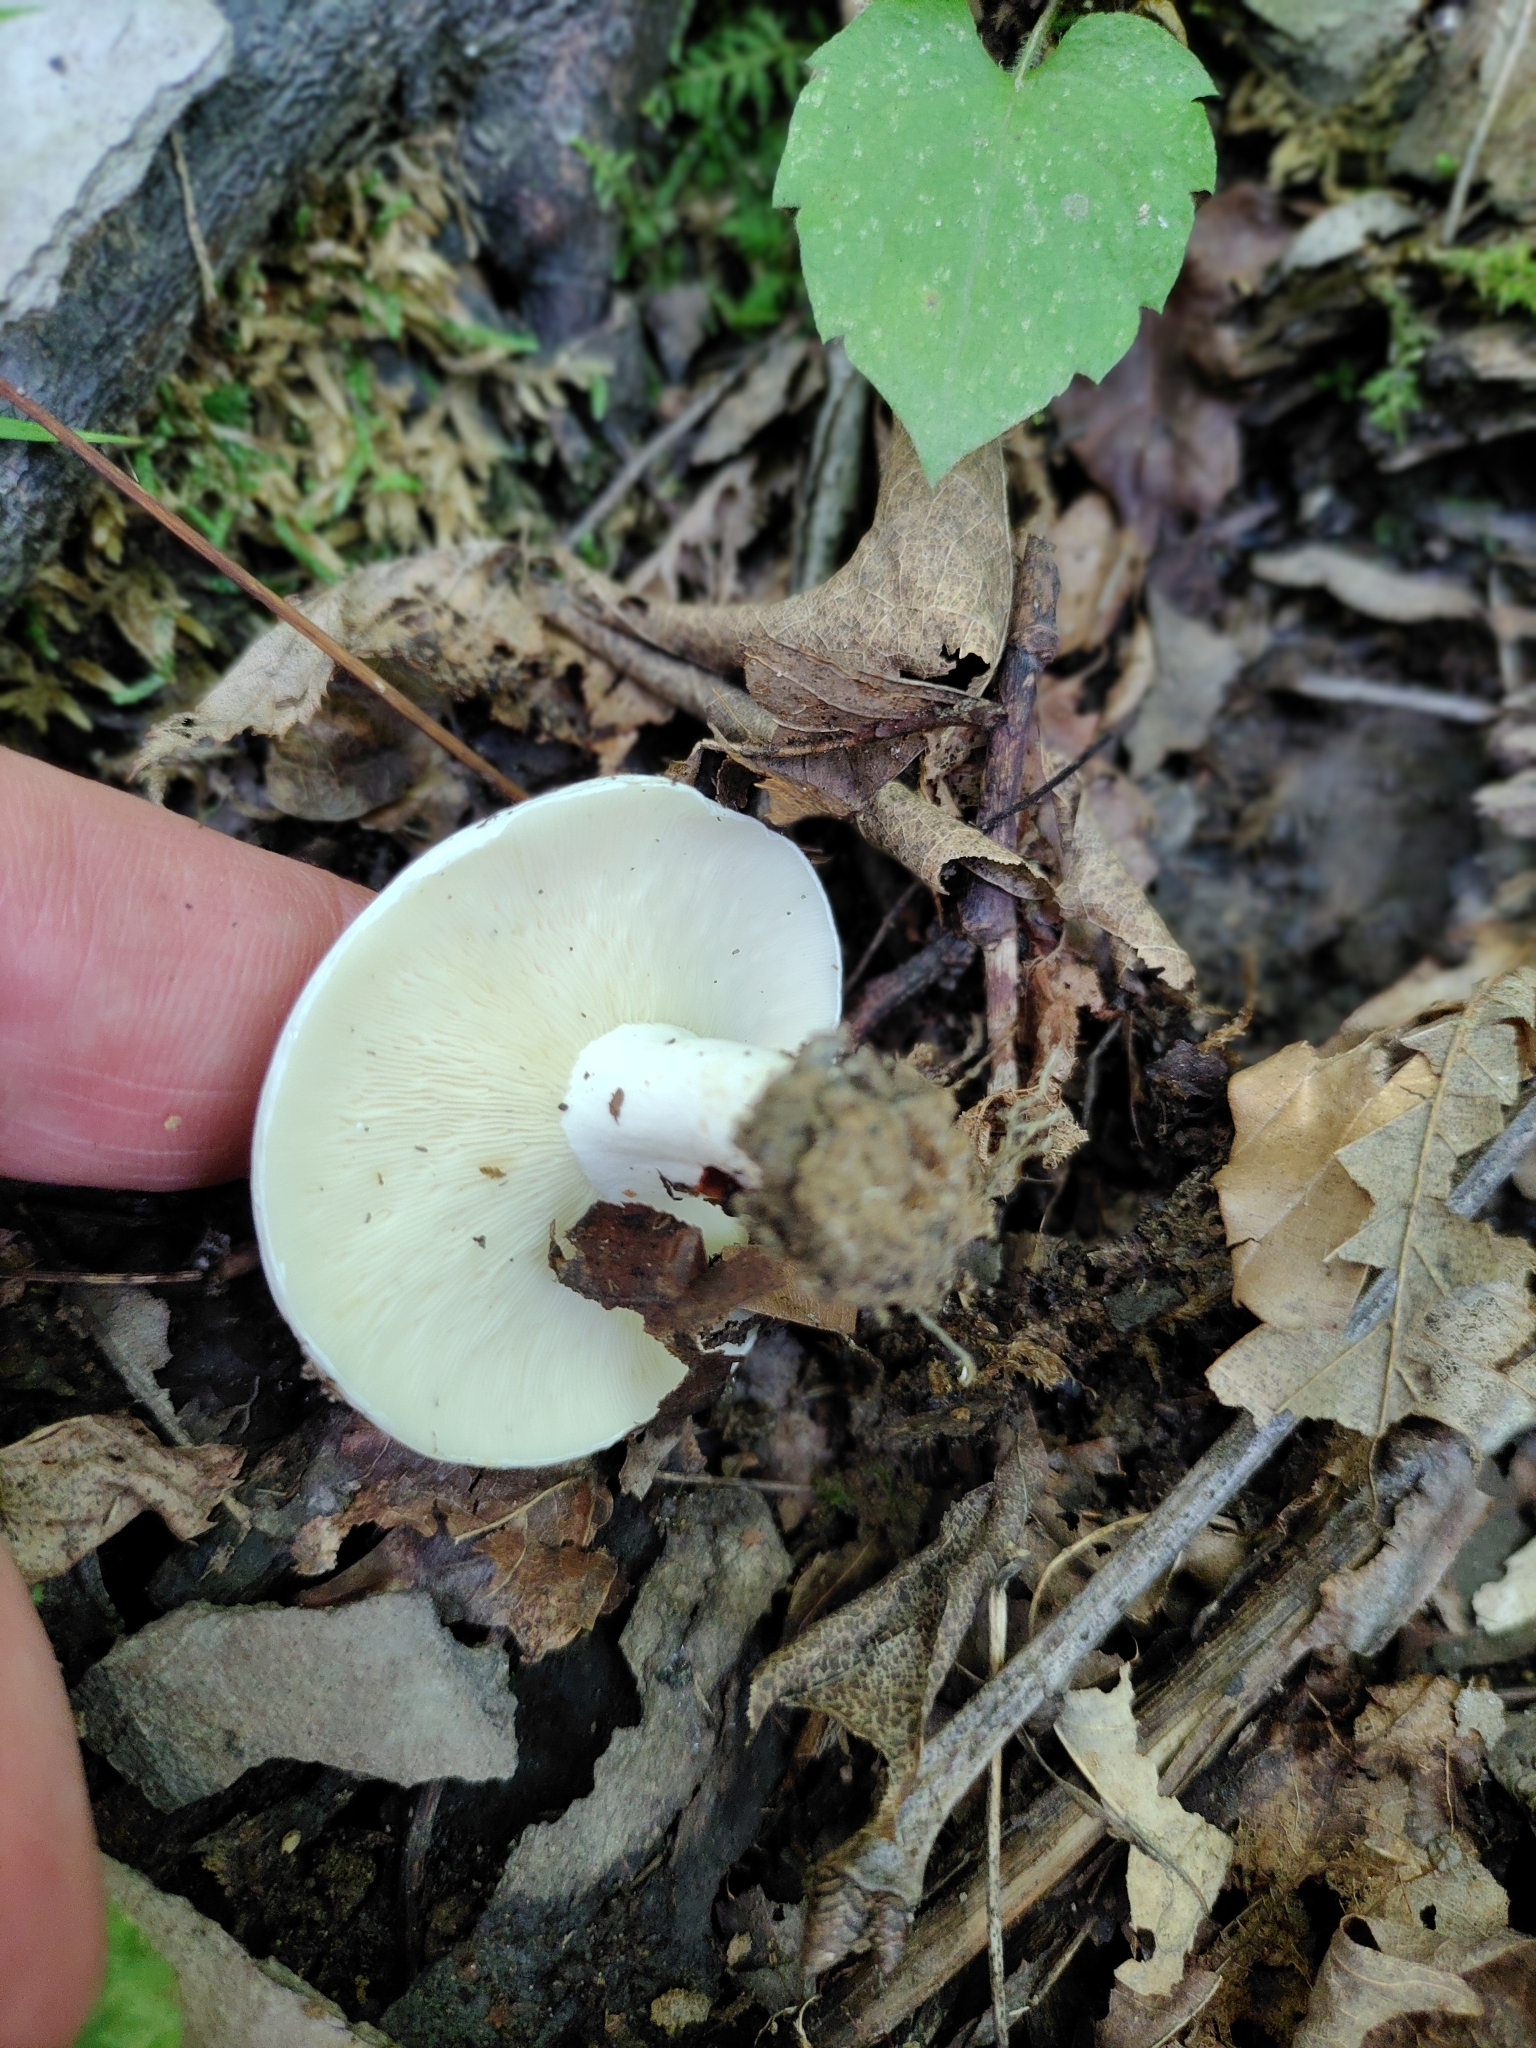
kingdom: Fungi
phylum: Basidiomycota
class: Agaricomycetes
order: Russulales
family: Russulaceae
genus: Lactifluus
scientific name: Lactifluus glaucescens
